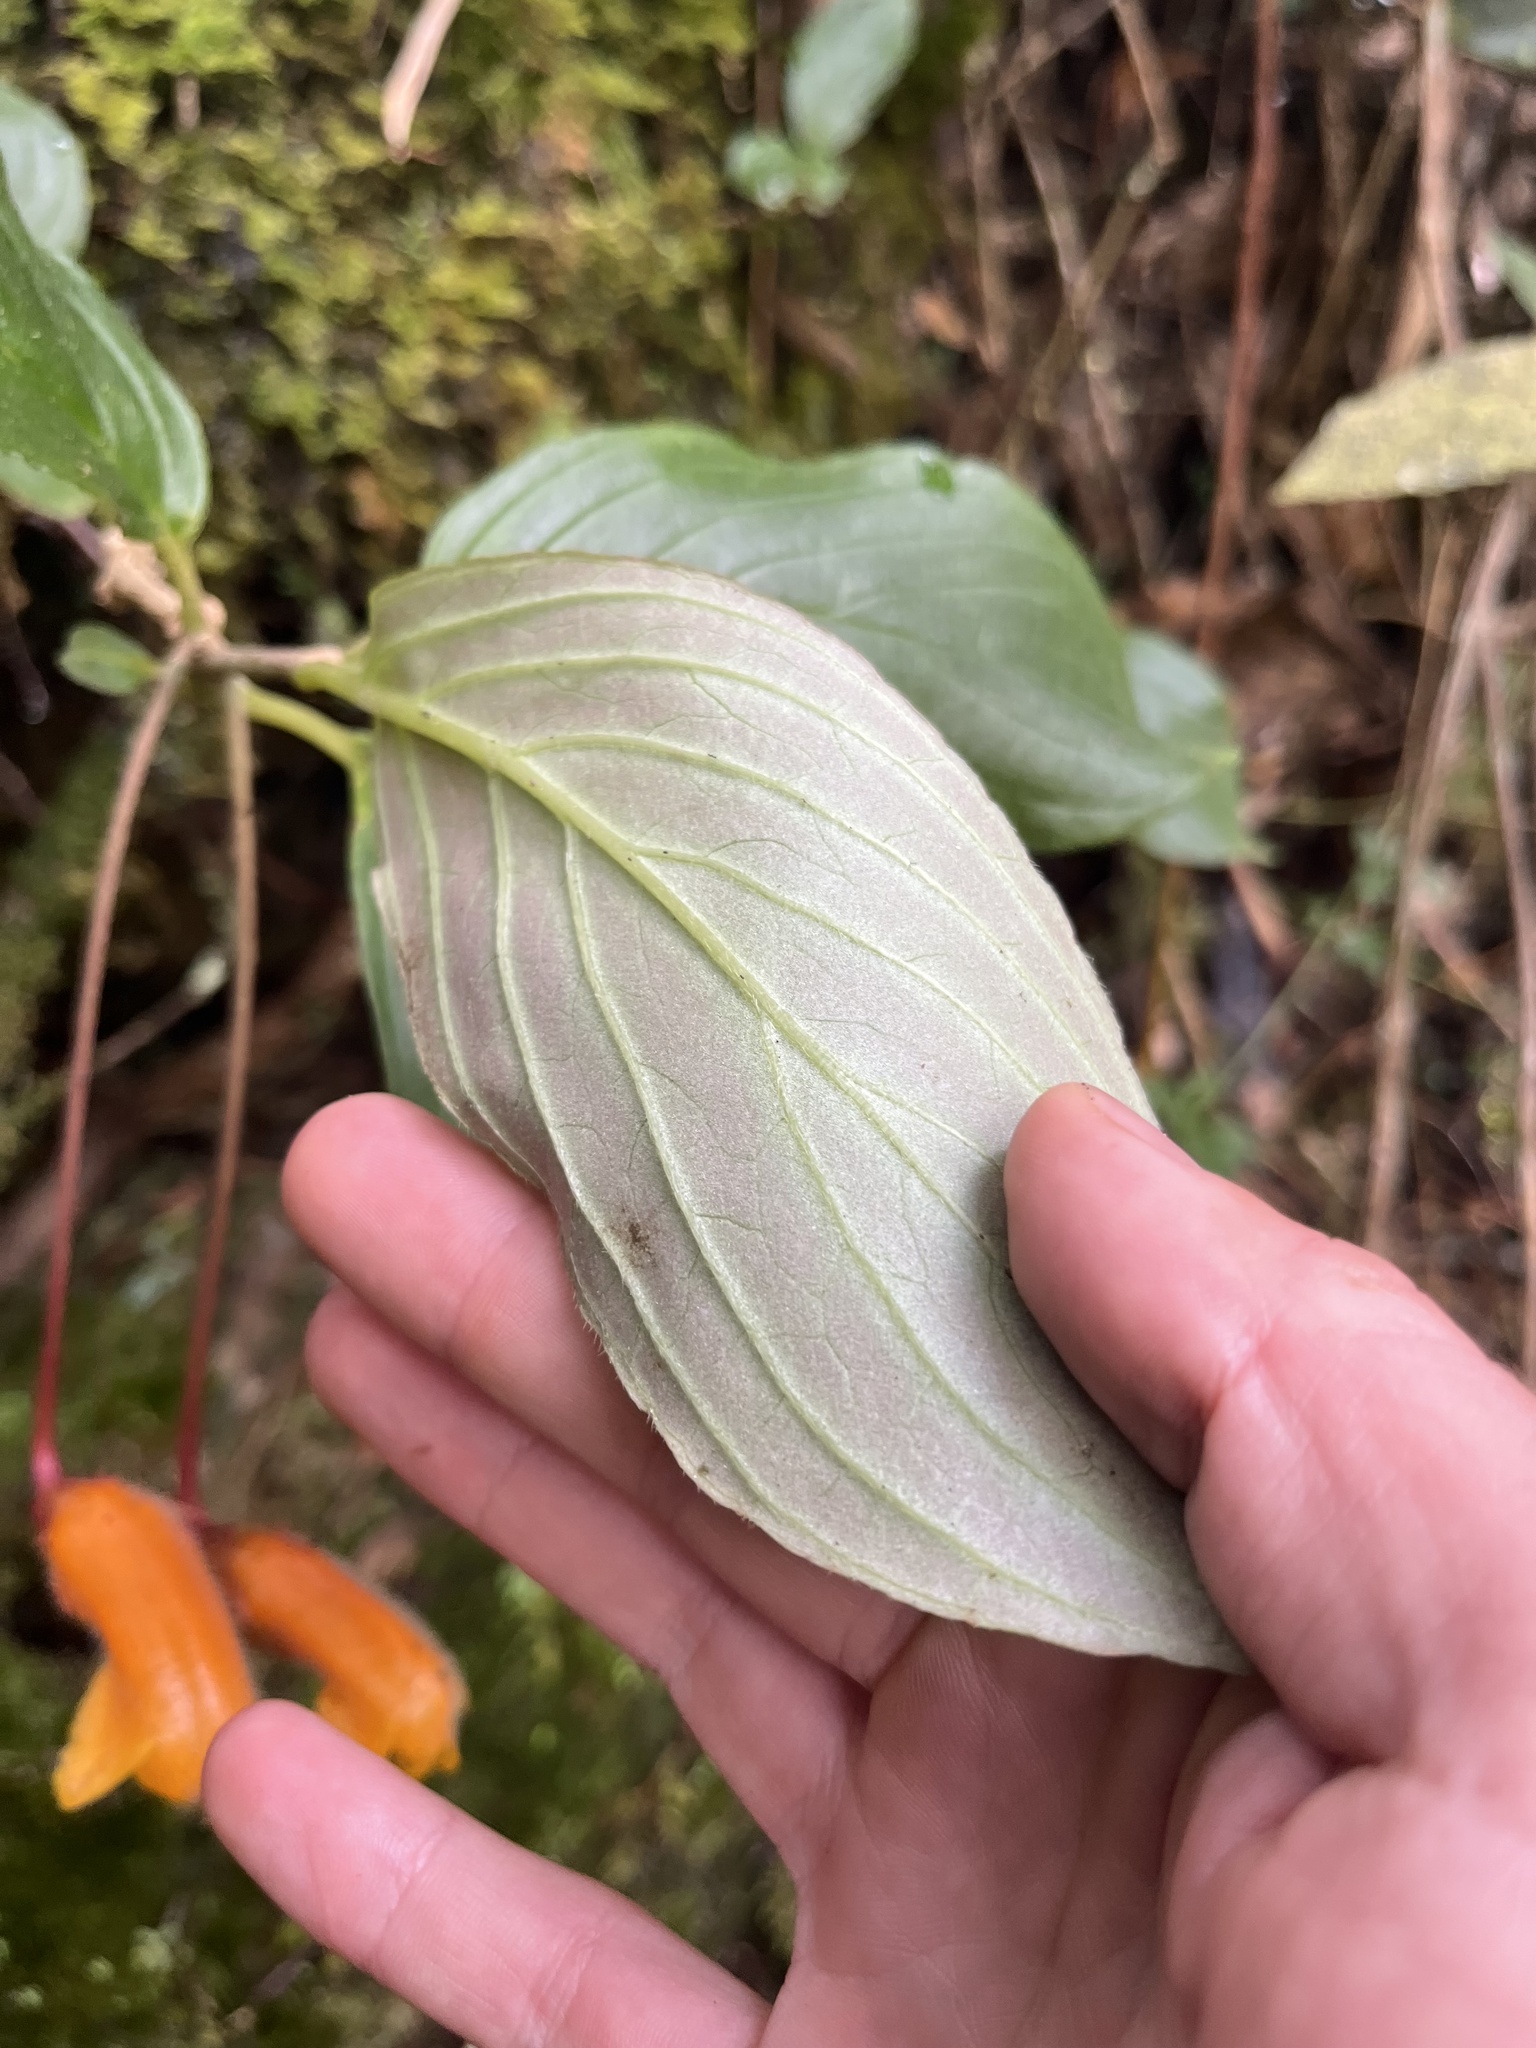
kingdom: Plantae
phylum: Tracheophyta
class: Magnoliopsida
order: Lamiales
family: Gesneriaceae
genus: Columnea
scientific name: Columnea strigosa
